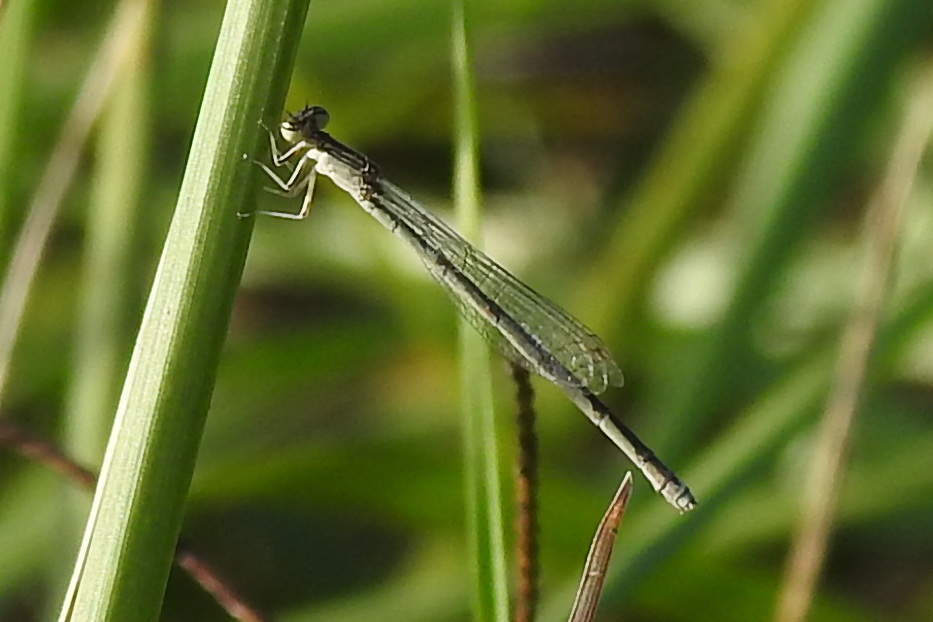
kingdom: Animalia
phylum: Arthropoda
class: Insecta
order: Odonata
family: Coenagrionidae
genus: Enallagma
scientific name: Enallagma basidens
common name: Double-striped bluet
